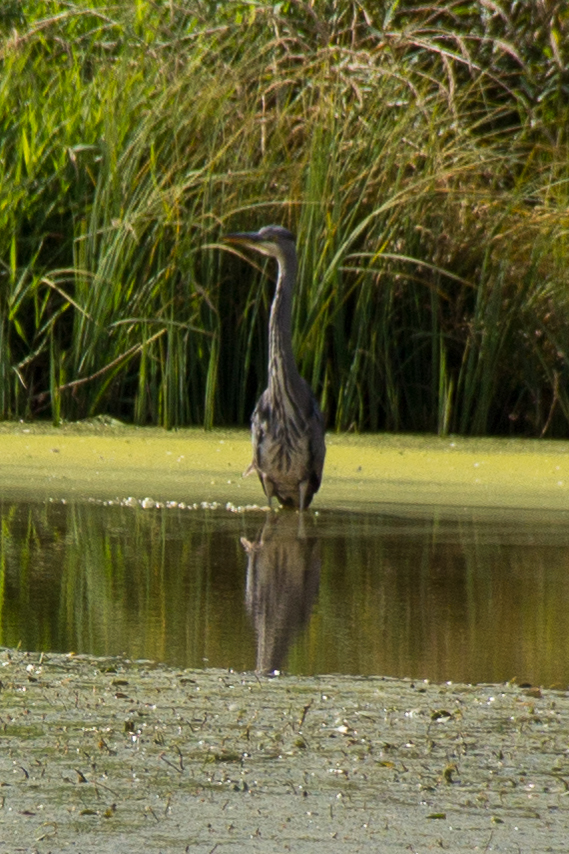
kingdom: Animalia
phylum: Chordata
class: Aves
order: Pelecaniformes
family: Ardeidae
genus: Ardea
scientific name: Ardea cinerea
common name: Grey heron
